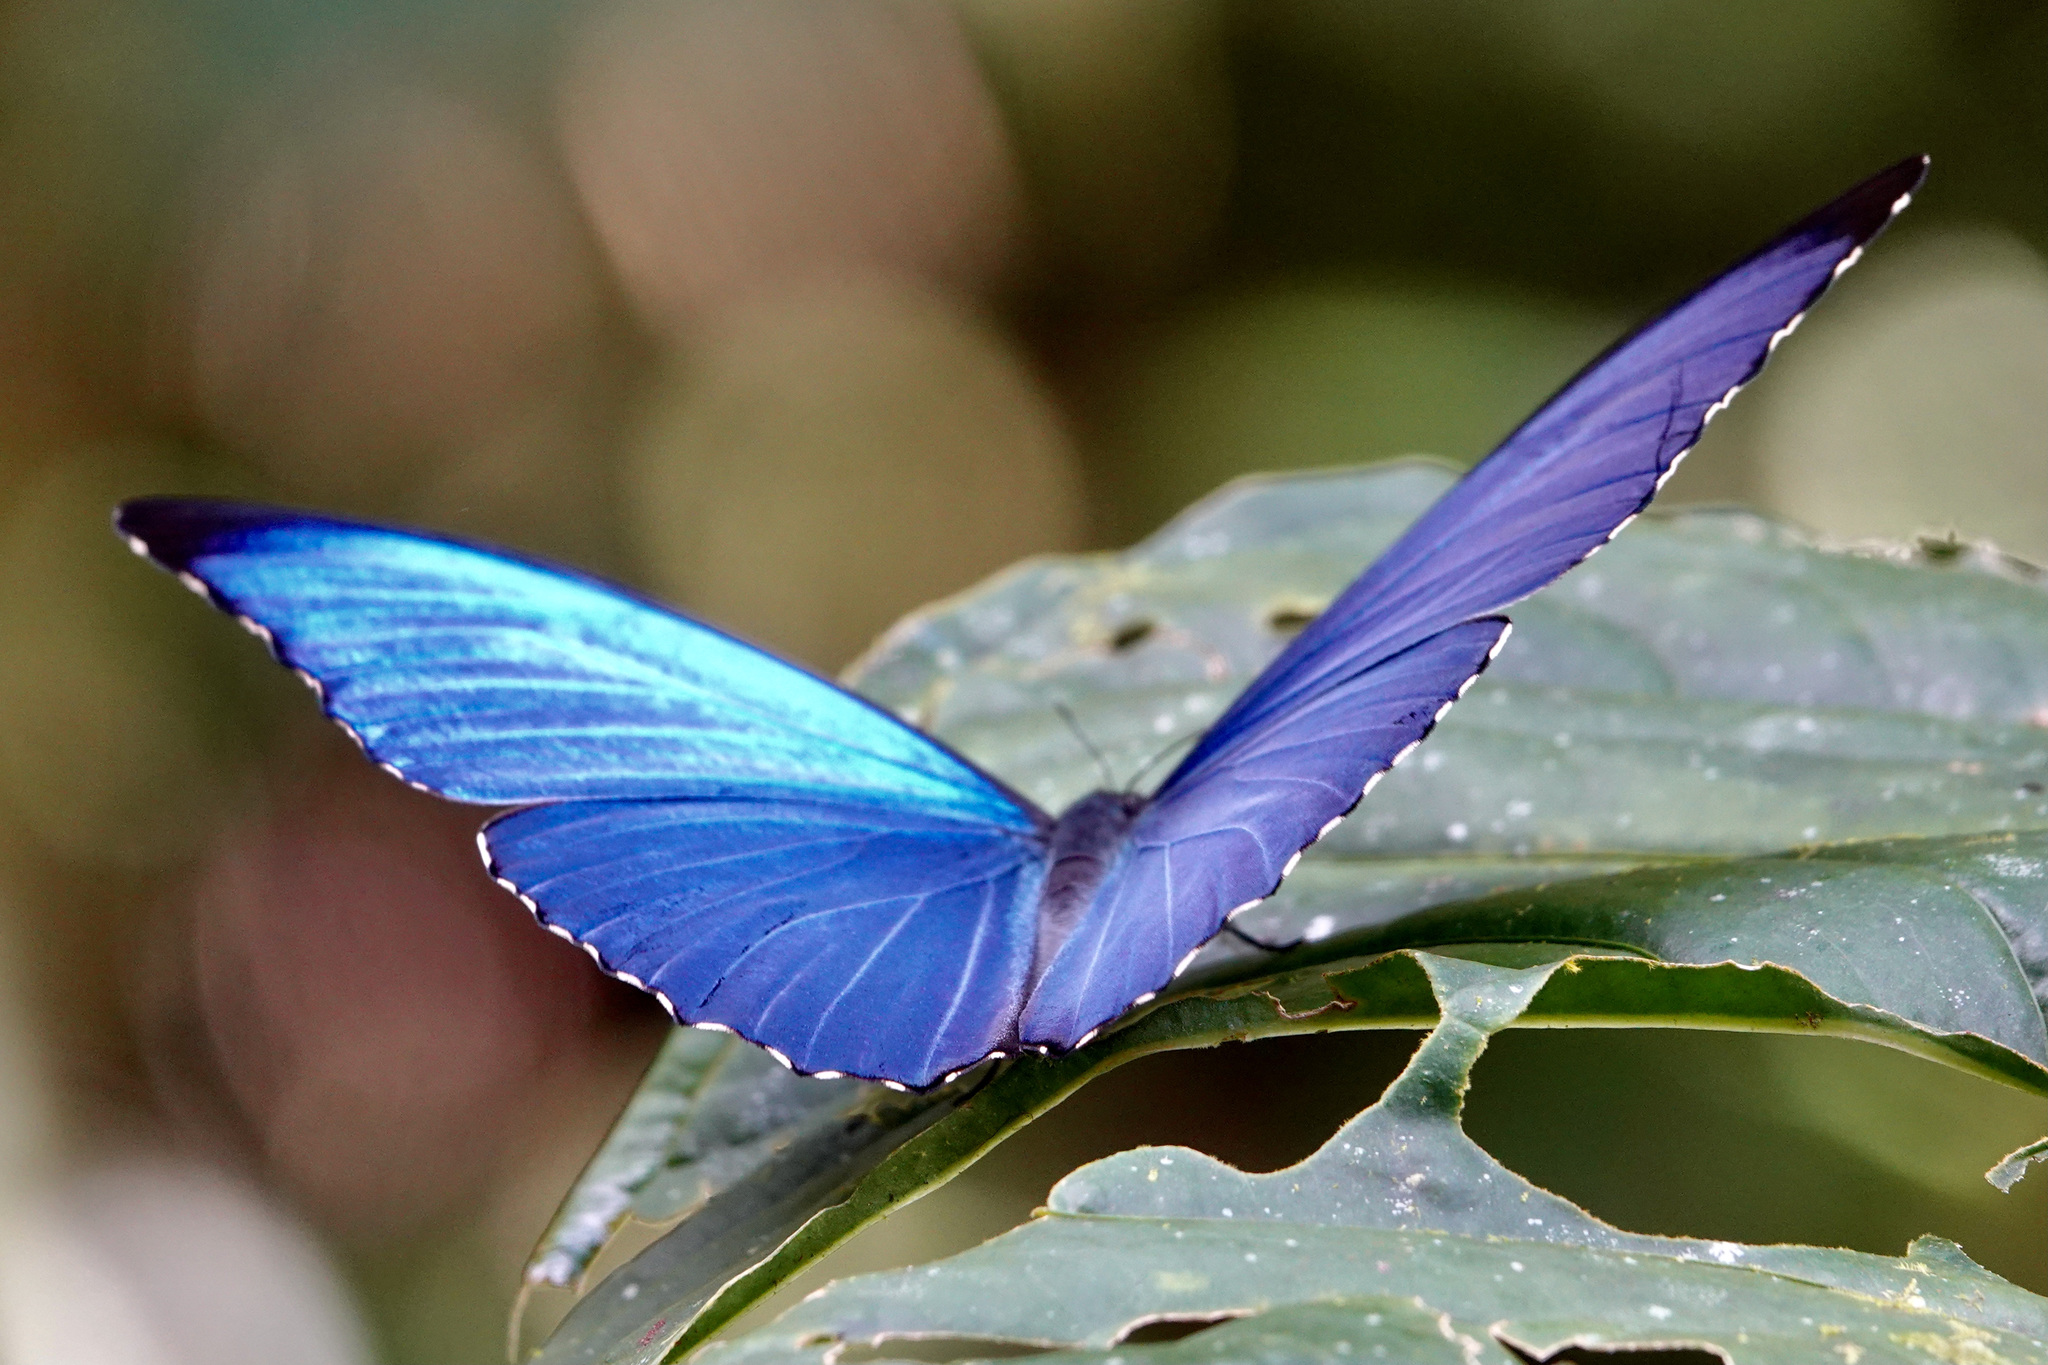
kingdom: Animalia
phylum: Arthropoda
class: Insecta
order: Lepidoptera
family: Nymphalidae
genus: Morpho
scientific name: Morpho amathonte
